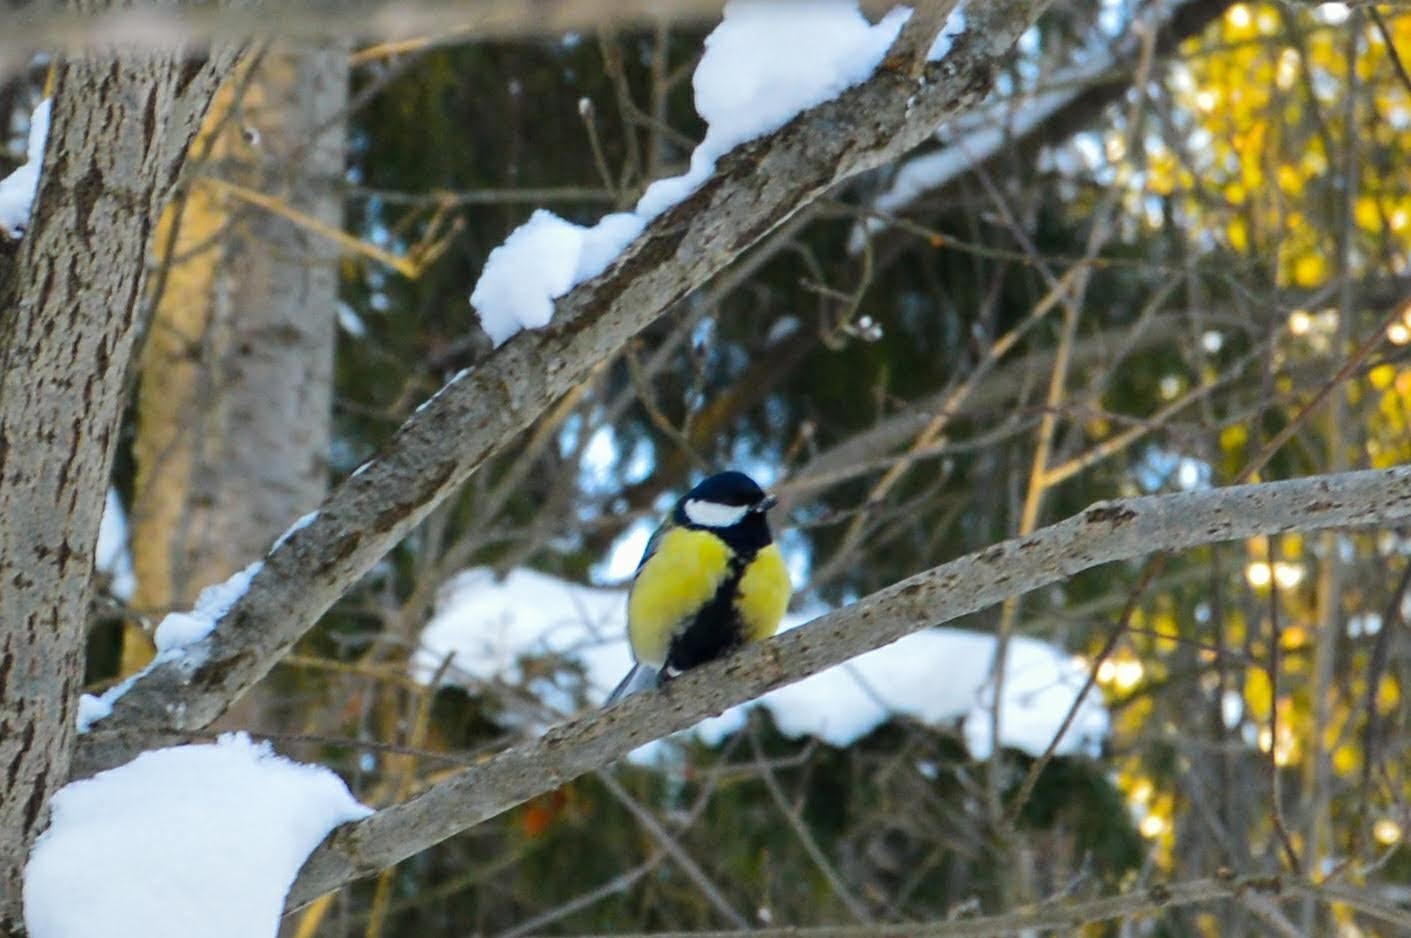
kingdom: Animalia
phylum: Chordata
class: Aves
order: Passeriformes
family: Paridae
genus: Parus
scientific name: Parus major
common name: Great tit
